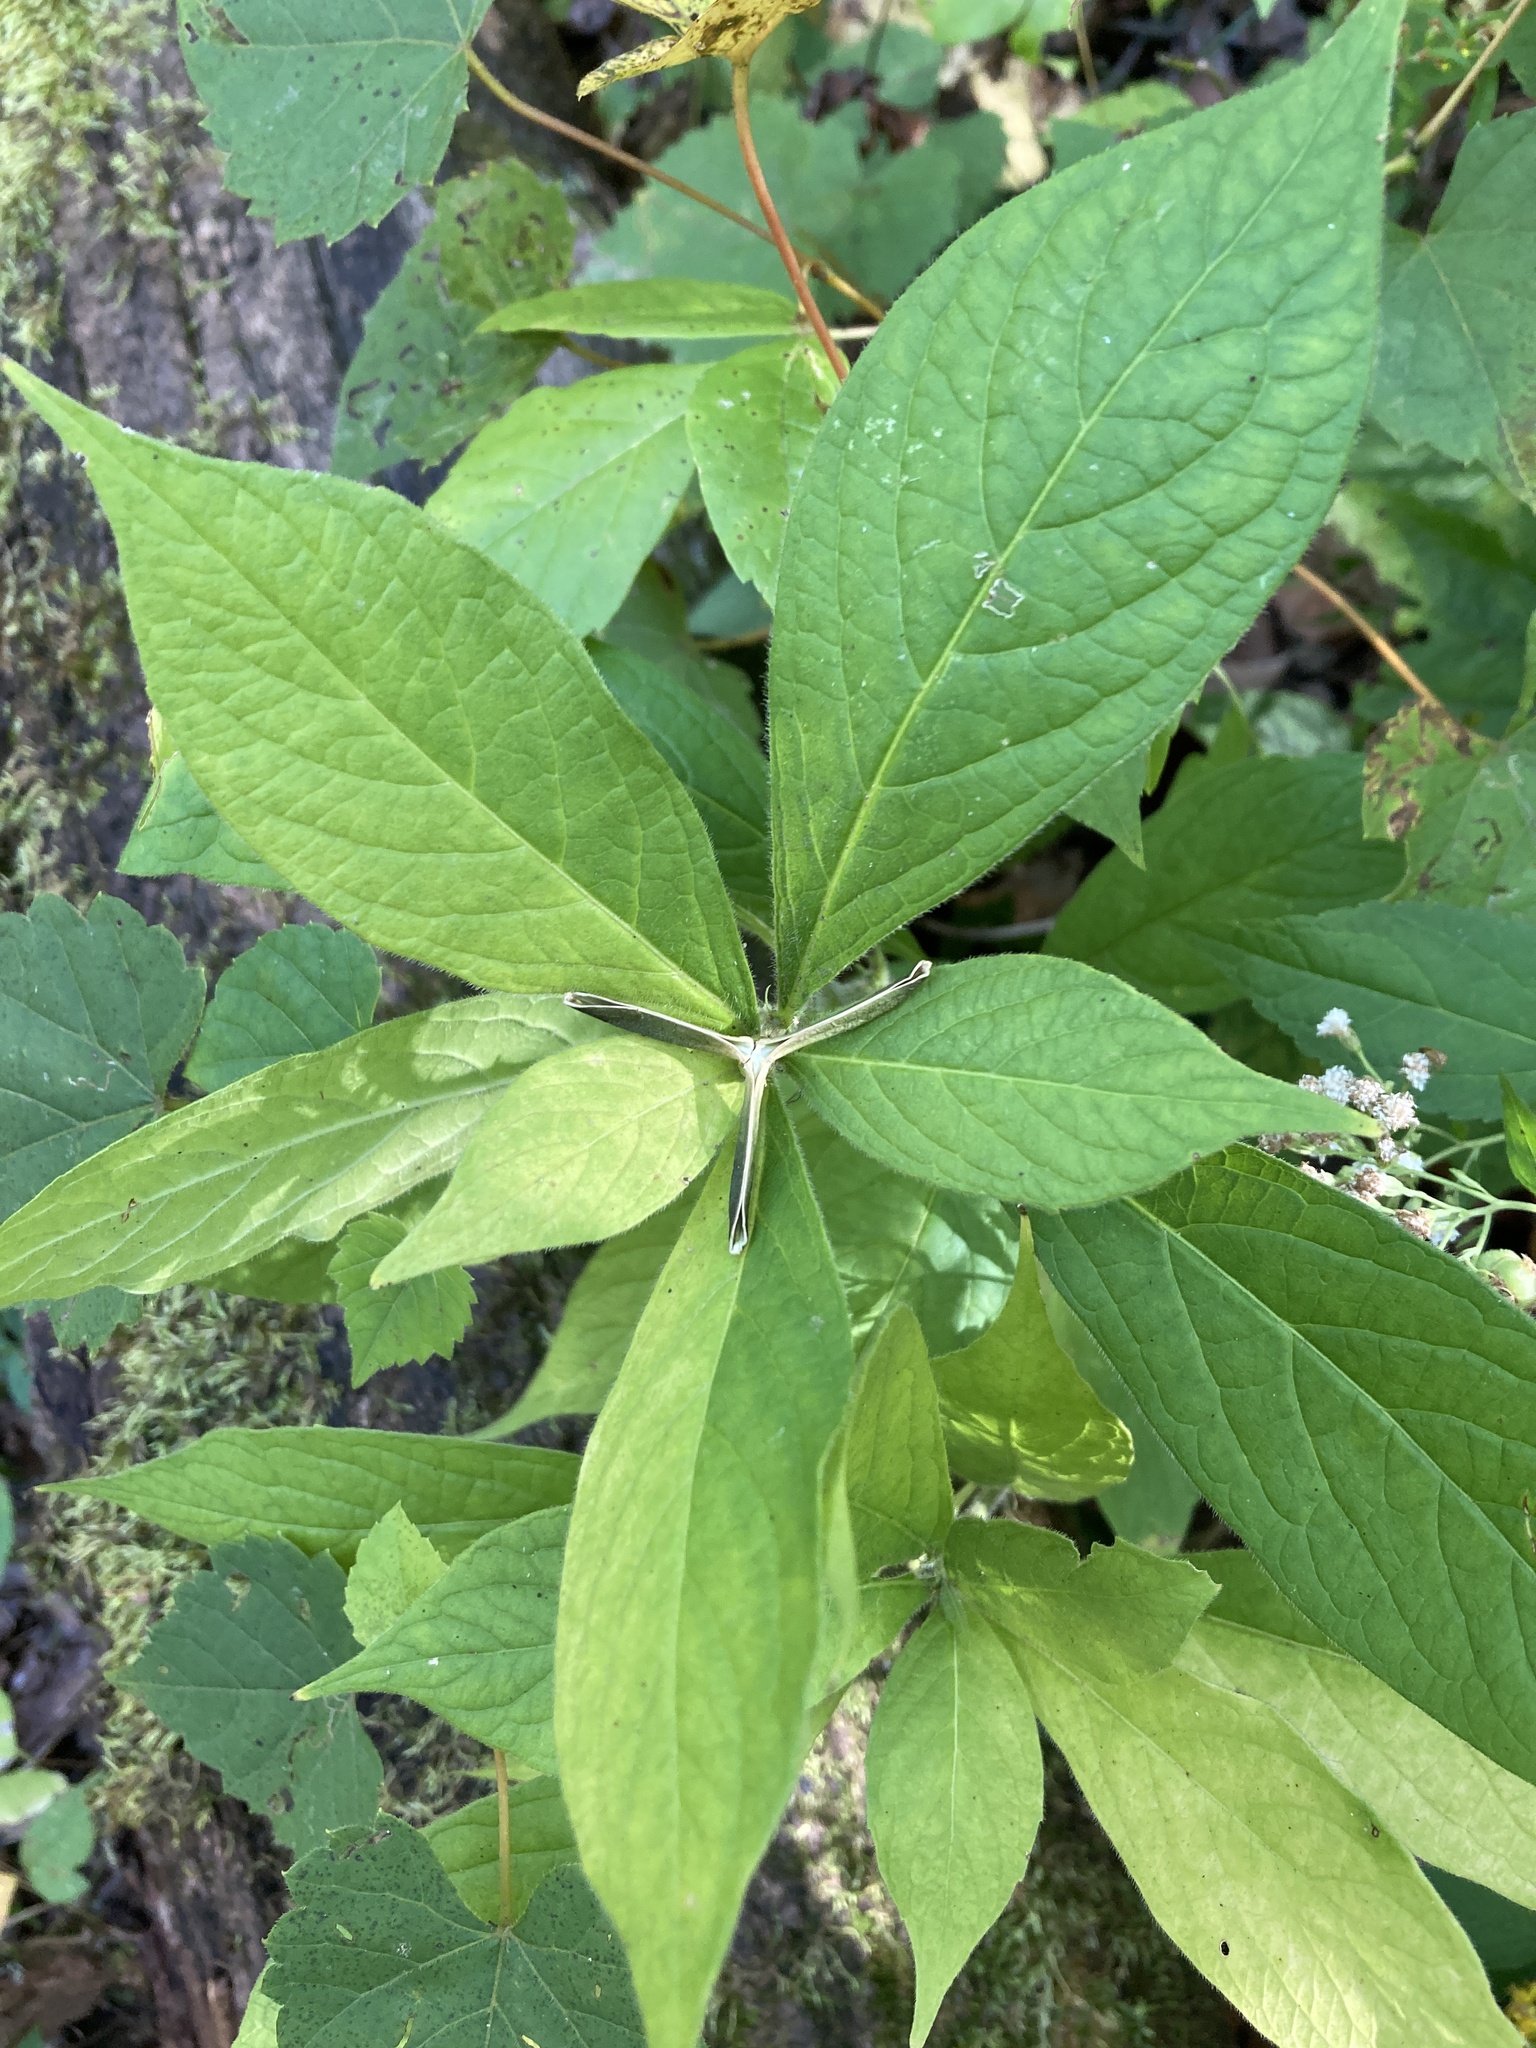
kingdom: Plantae
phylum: Tracheophyta
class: Magnoliopsida
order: Malpighiales
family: Violaceae
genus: Cubelium
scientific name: Cubelium concolor
